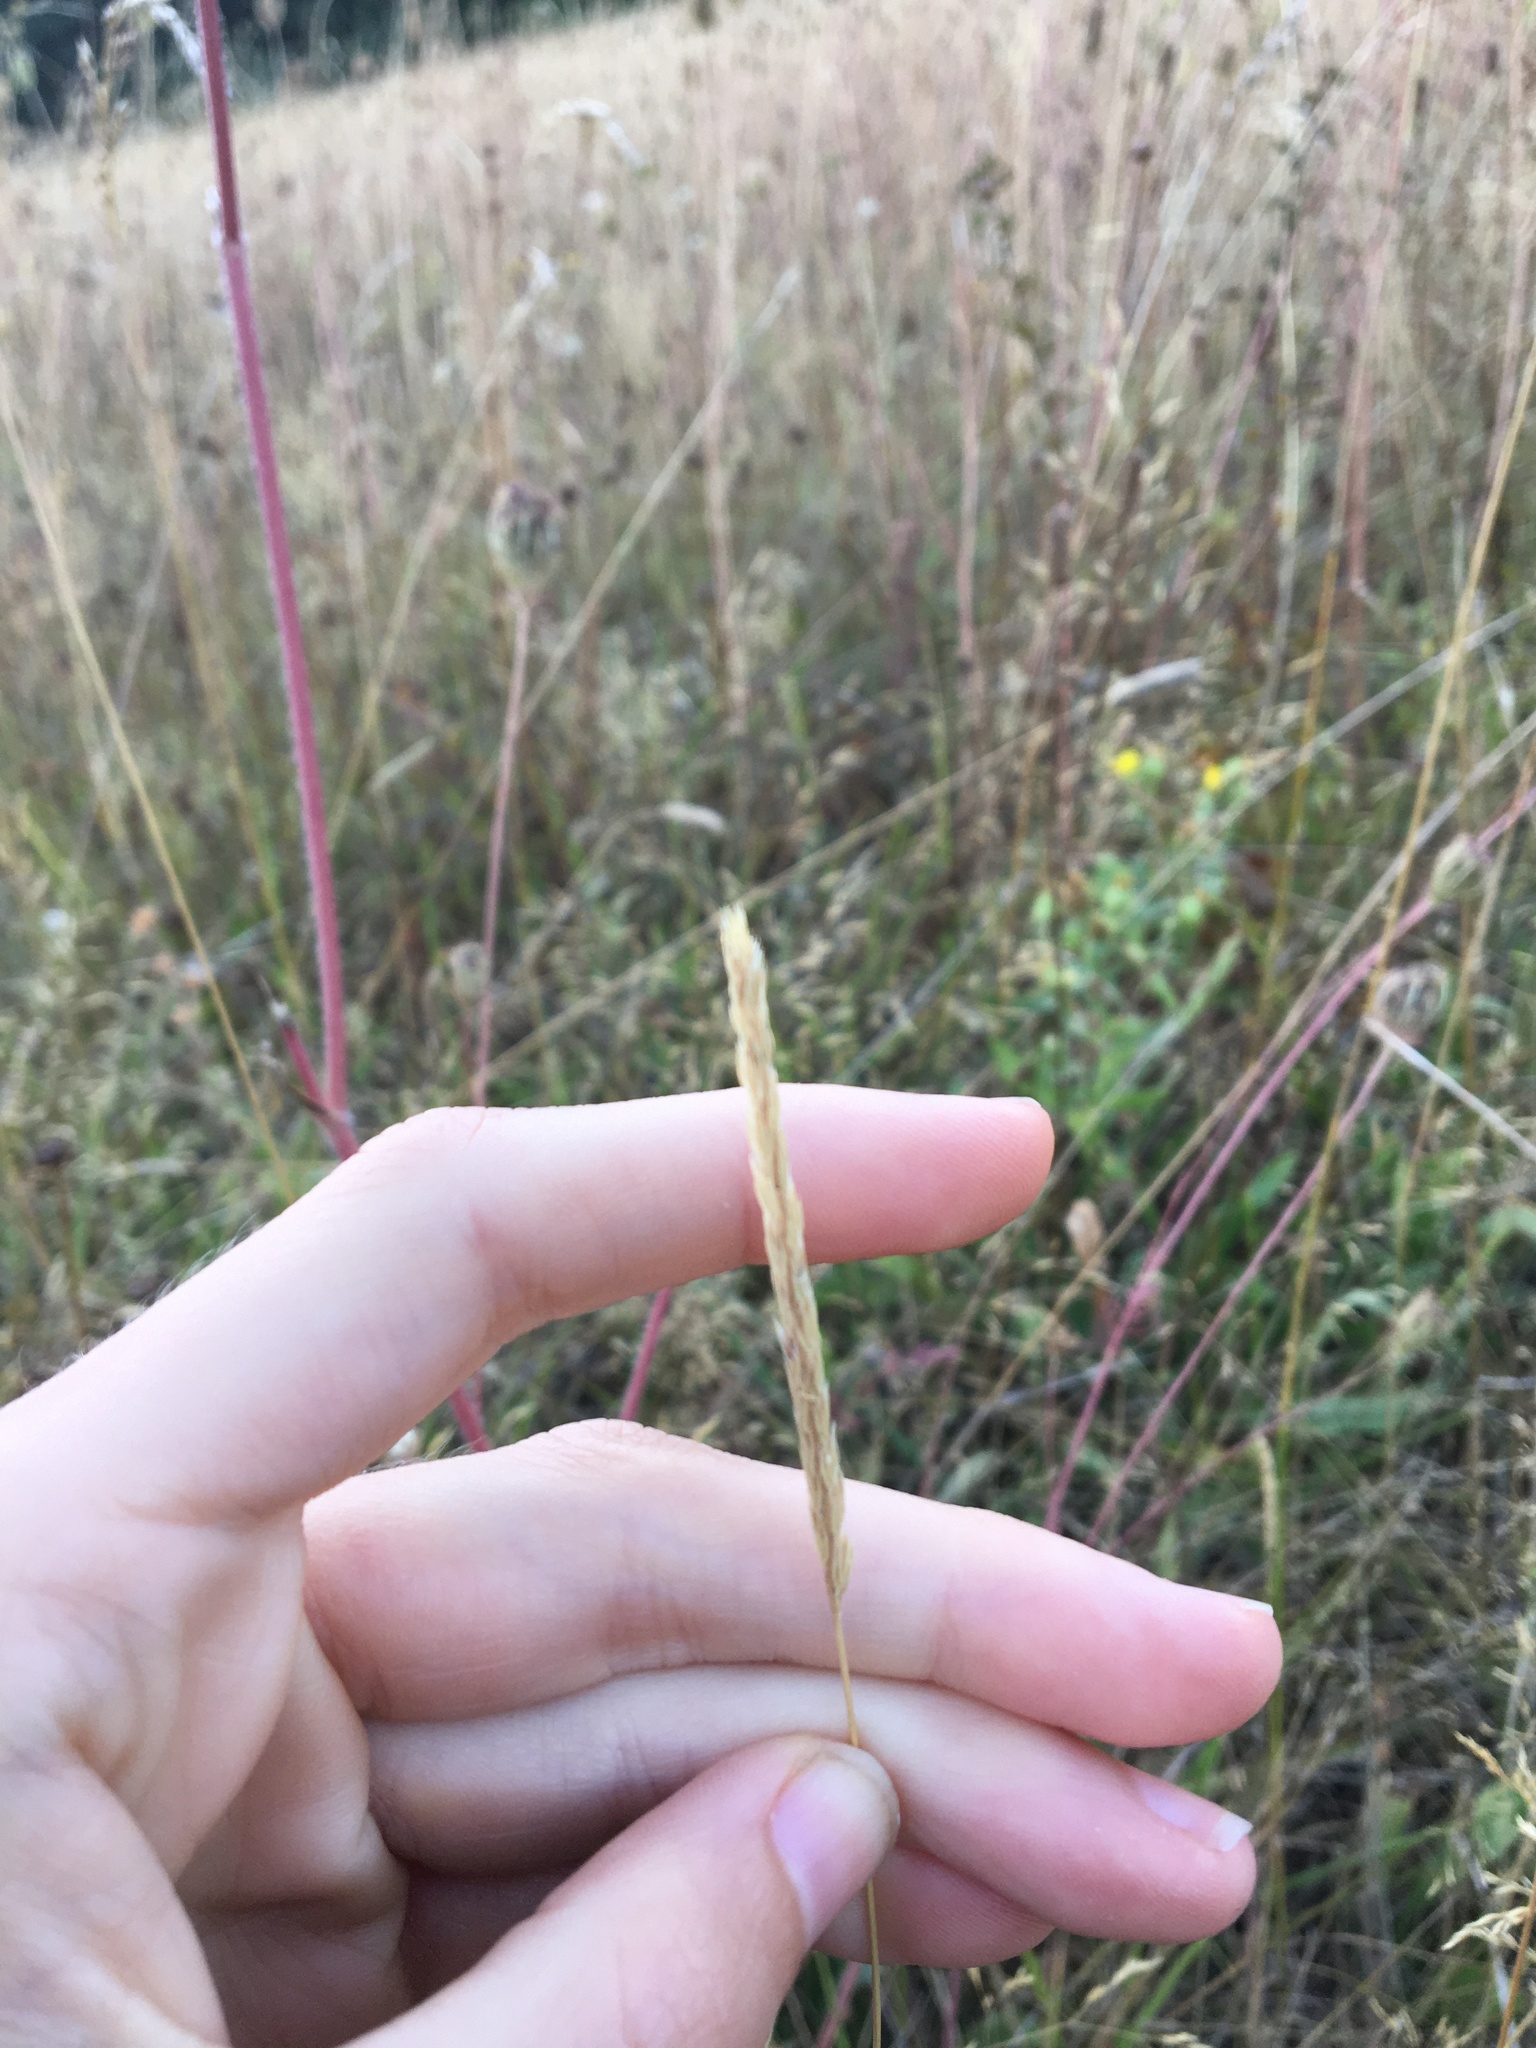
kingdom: Plantae
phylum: Tracheophyta
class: Liliopsida
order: Poales
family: Poaceae
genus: Cynosurus
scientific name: Cynosurus cristatus
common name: Crested dog's-tail
